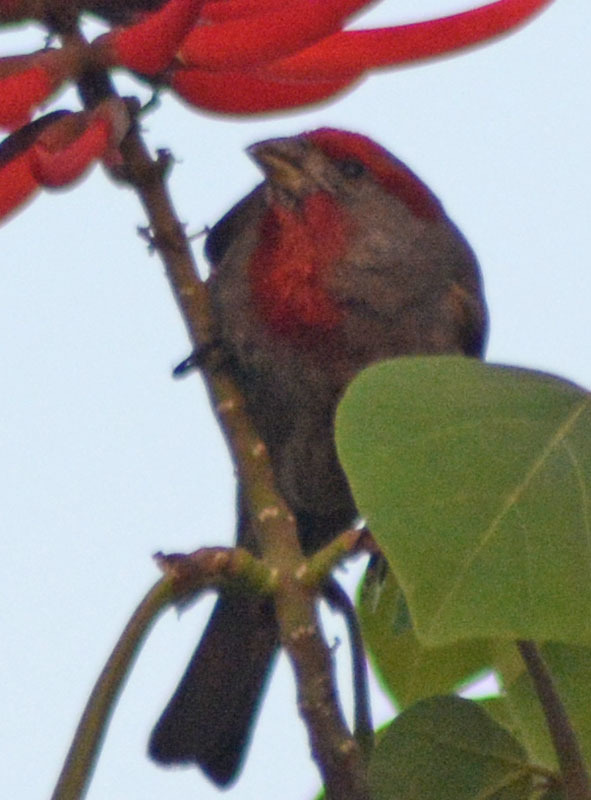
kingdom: Animalia
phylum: Chordata
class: Aves
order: Passeriformes
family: Fringillidae
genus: Haemorhous
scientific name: Haemorhous mexicanus
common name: House finch
